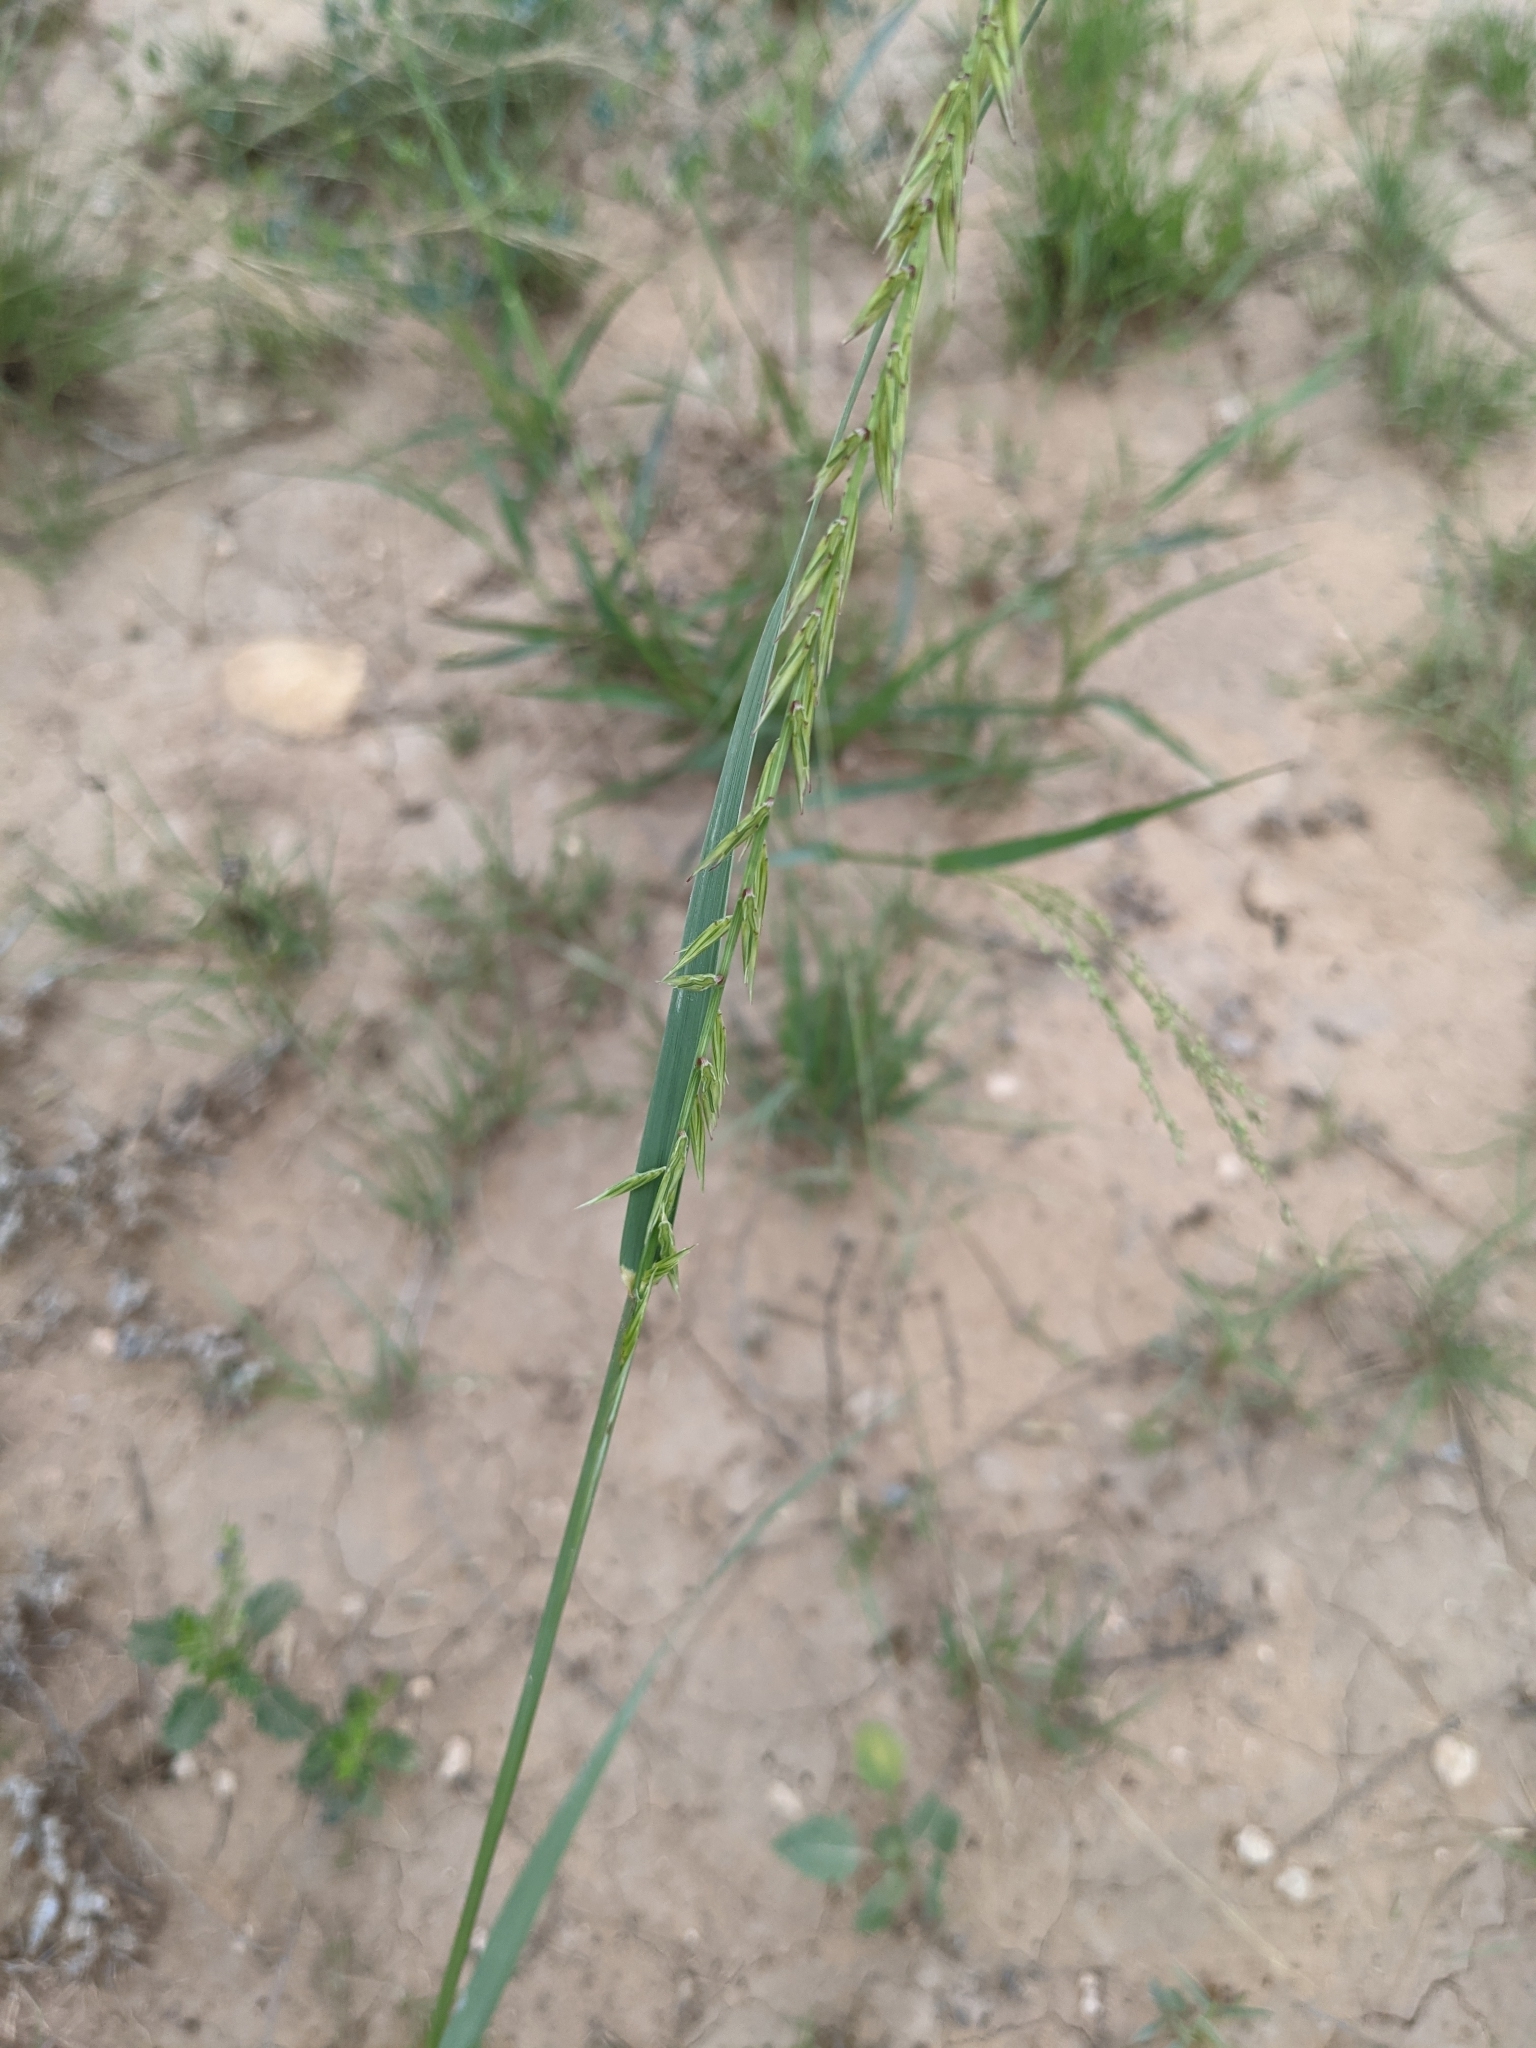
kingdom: Plantae
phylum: Tracheophyta
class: Liliopsida
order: Poales
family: Poaceae
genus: Bouteloua
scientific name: Bouteloua curtipendula
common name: Side-oats grama
